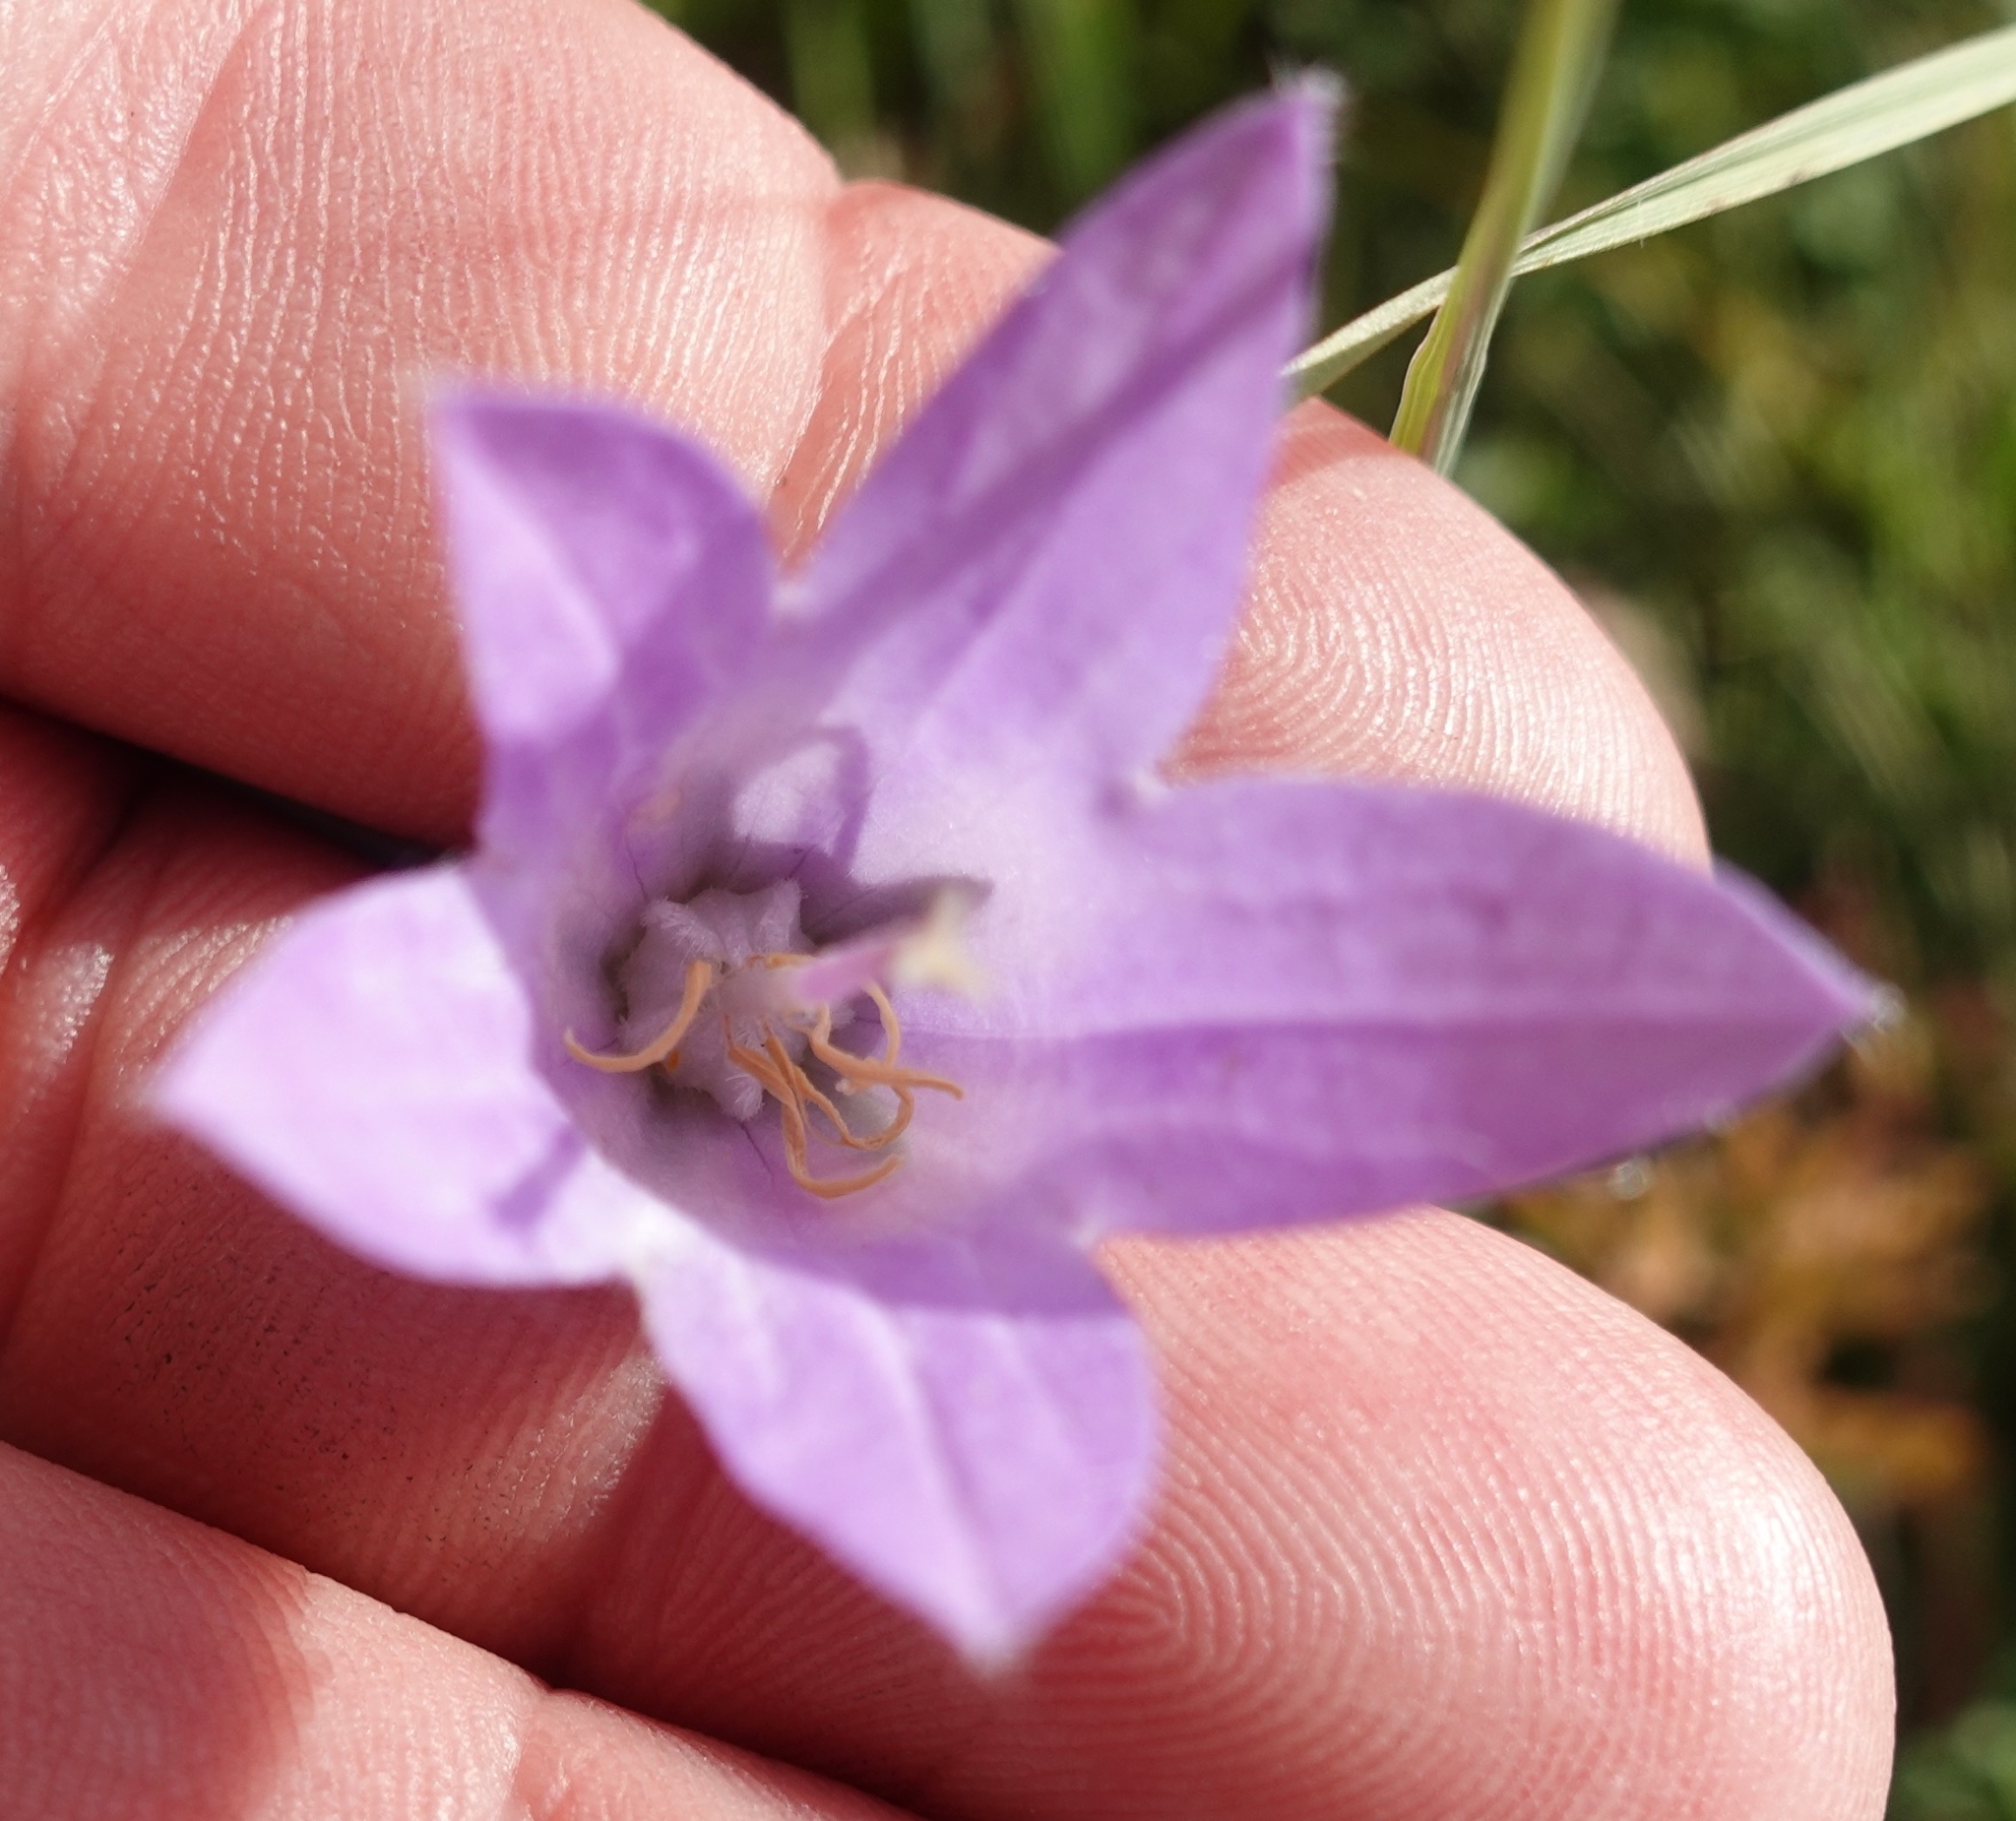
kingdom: Plantae
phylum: Tracheophyta
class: Magnoliopsida
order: Asterales
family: Campanulaceae
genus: Campanula
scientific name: Campanula sarmatica
